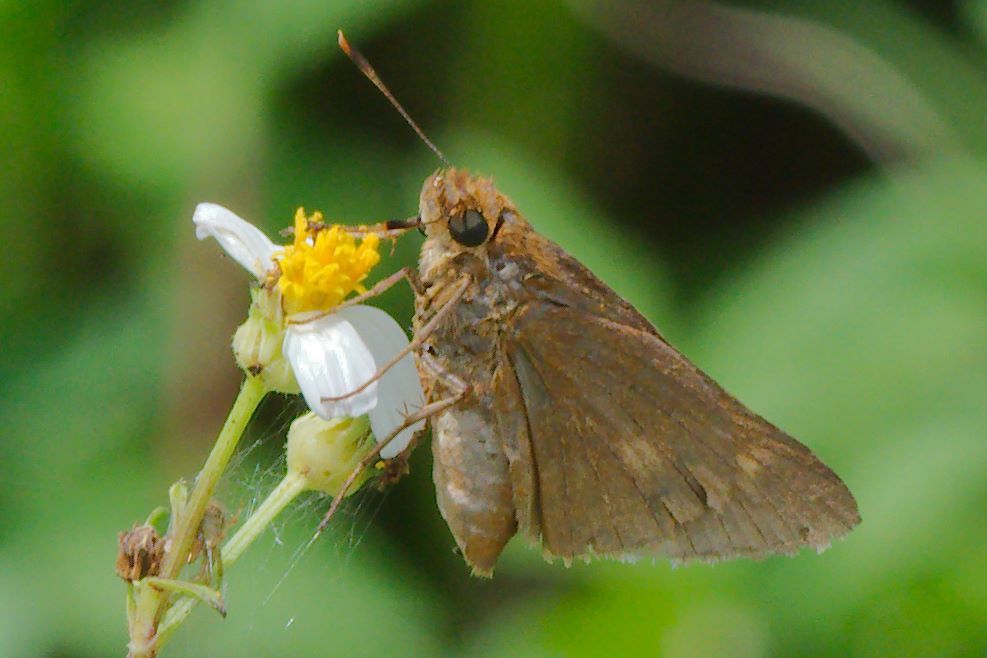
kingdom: Animalia
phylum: Arthropoda
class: Insecta
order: Lepidoptera
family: Hesperiidae
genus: Euphyes
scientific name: Euphyes pilatka
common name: Palatka skipper
